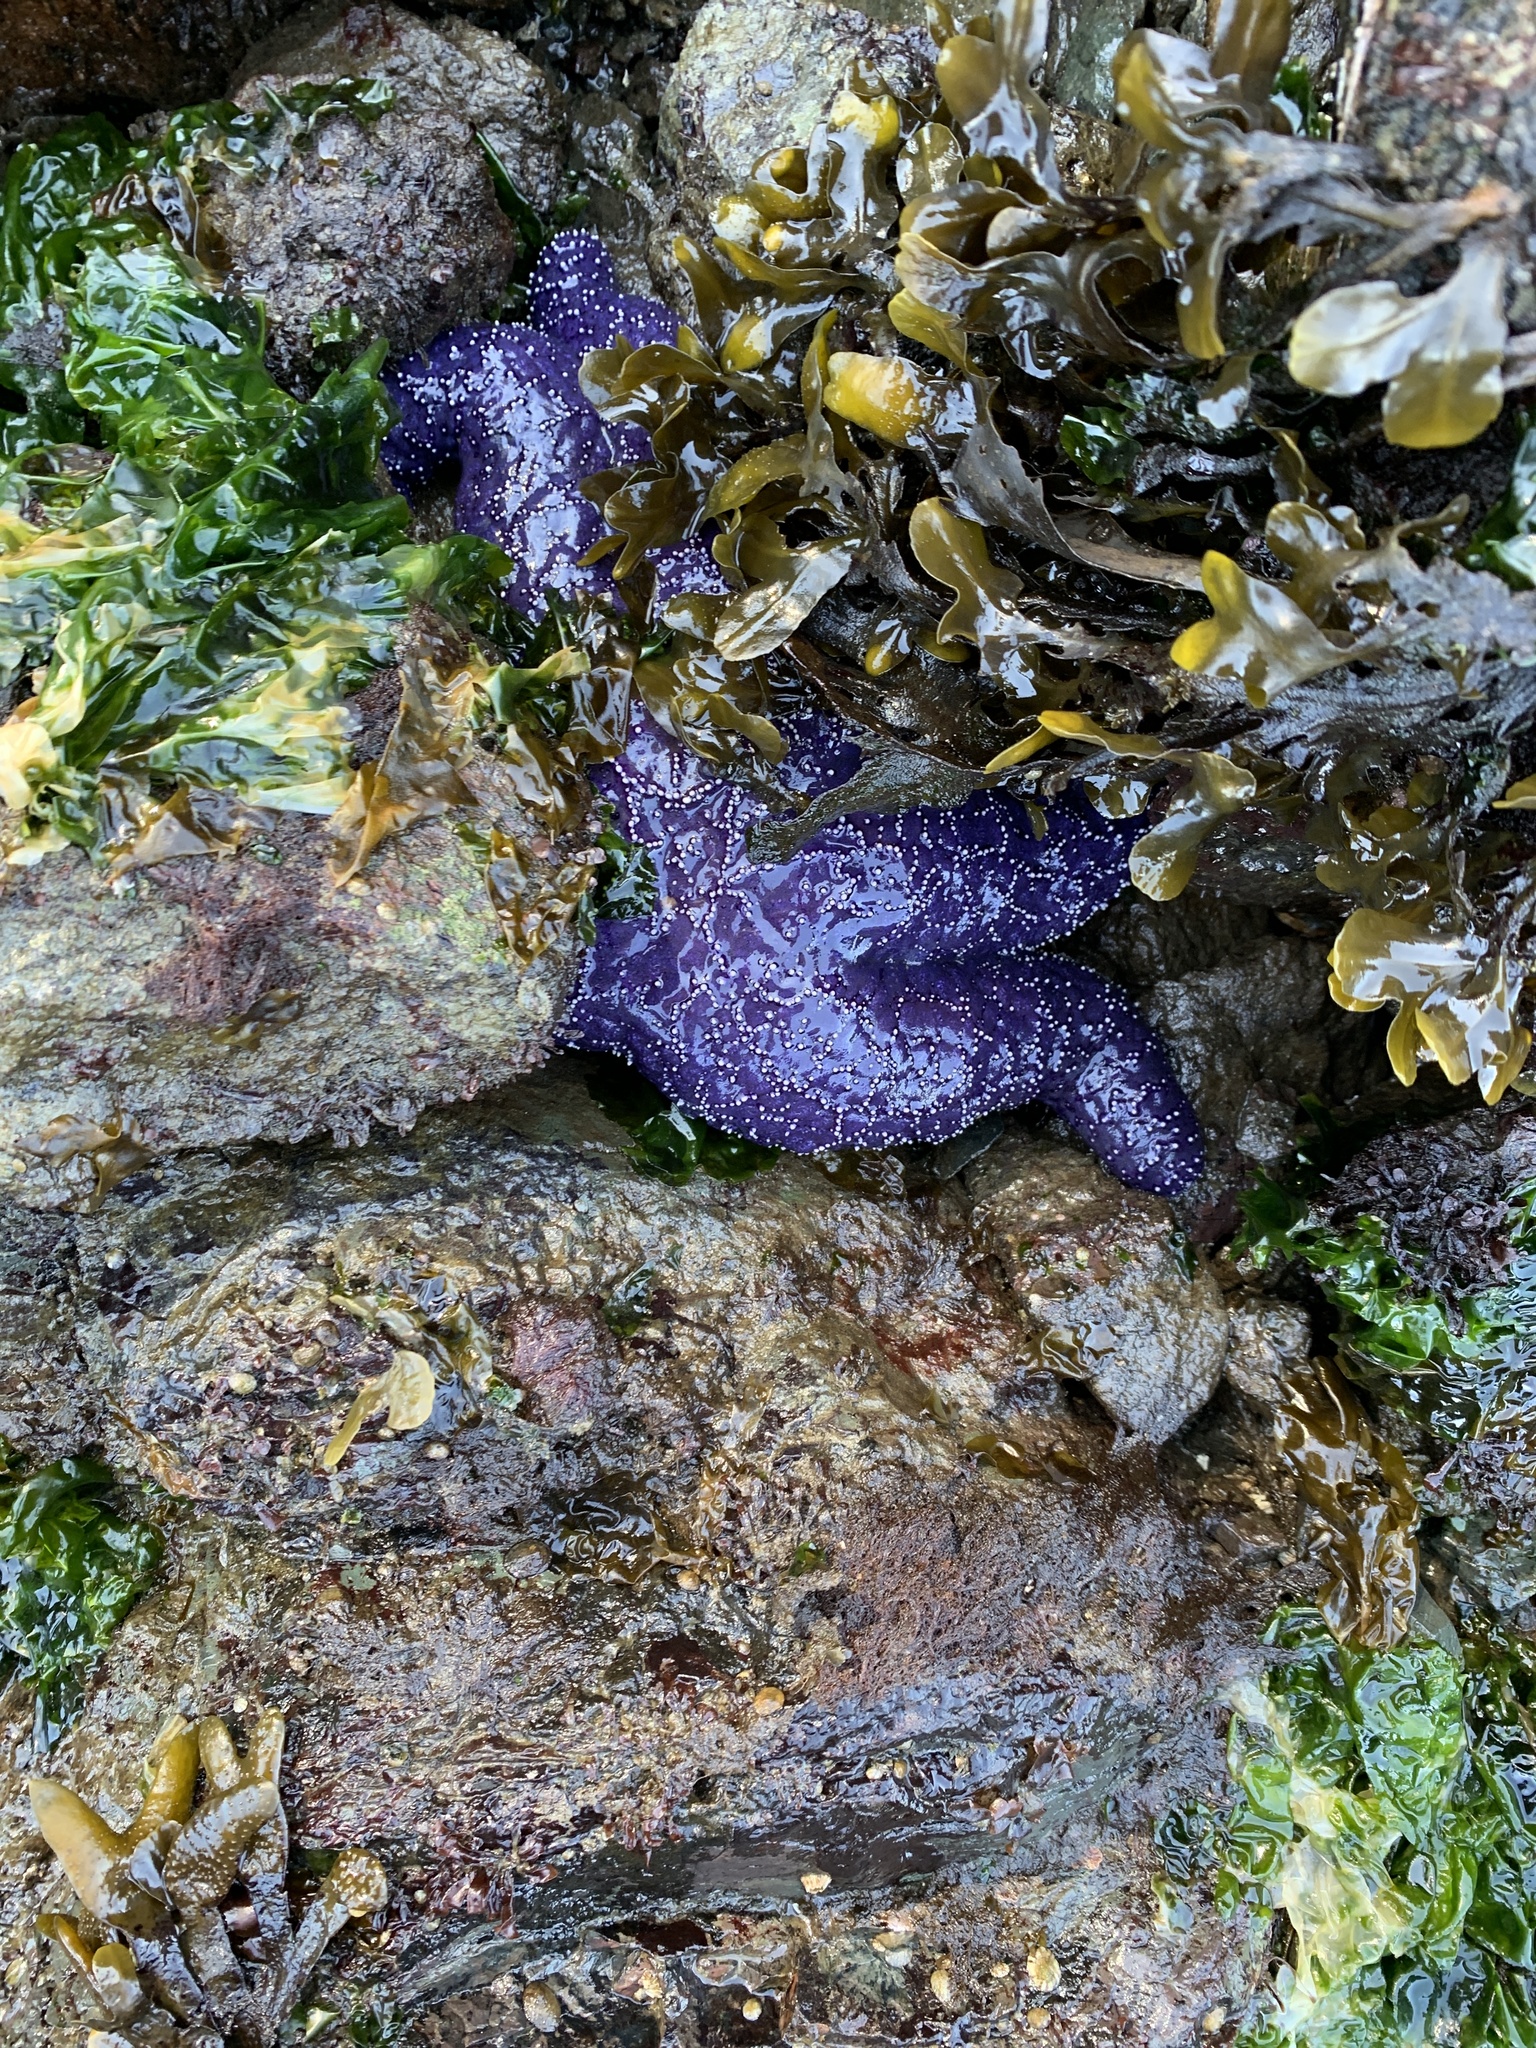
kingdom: Animalia
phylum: Echinodermata
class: Asteroidea
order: Forcipulatida
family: Asteriidae
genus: Pisaster
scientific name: Pisaster ochraceus
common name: Ochre stars
